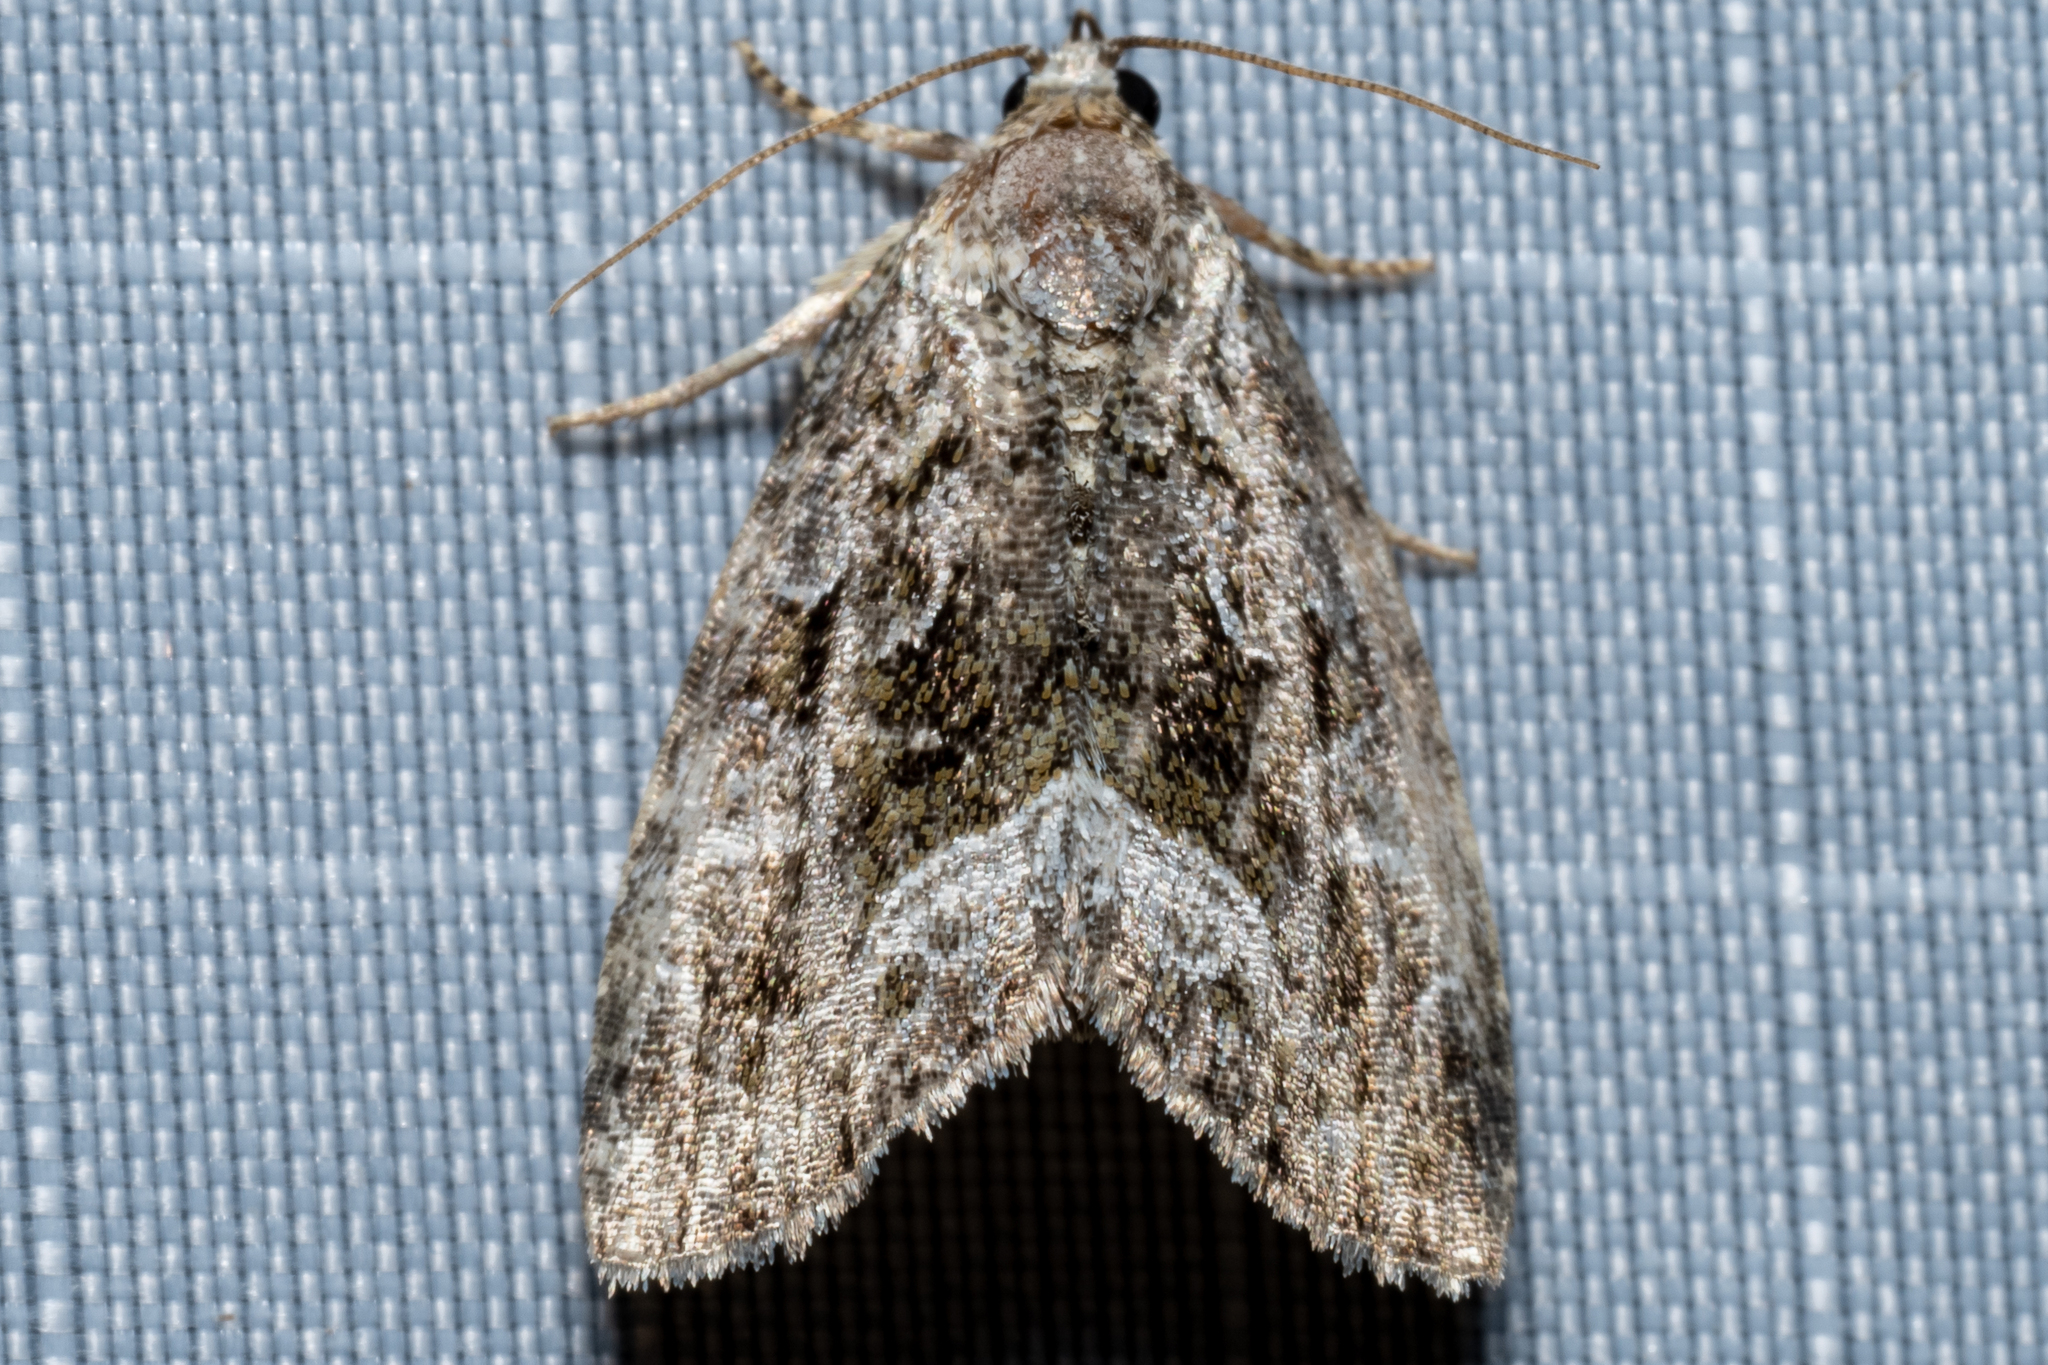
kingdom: Animalia
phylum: Arthropoda
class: Insecta
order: Lepidoptera
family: Noctuidae
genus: Protodeltote
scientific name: Protodeltote muscosula
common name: Large mossy glyph
